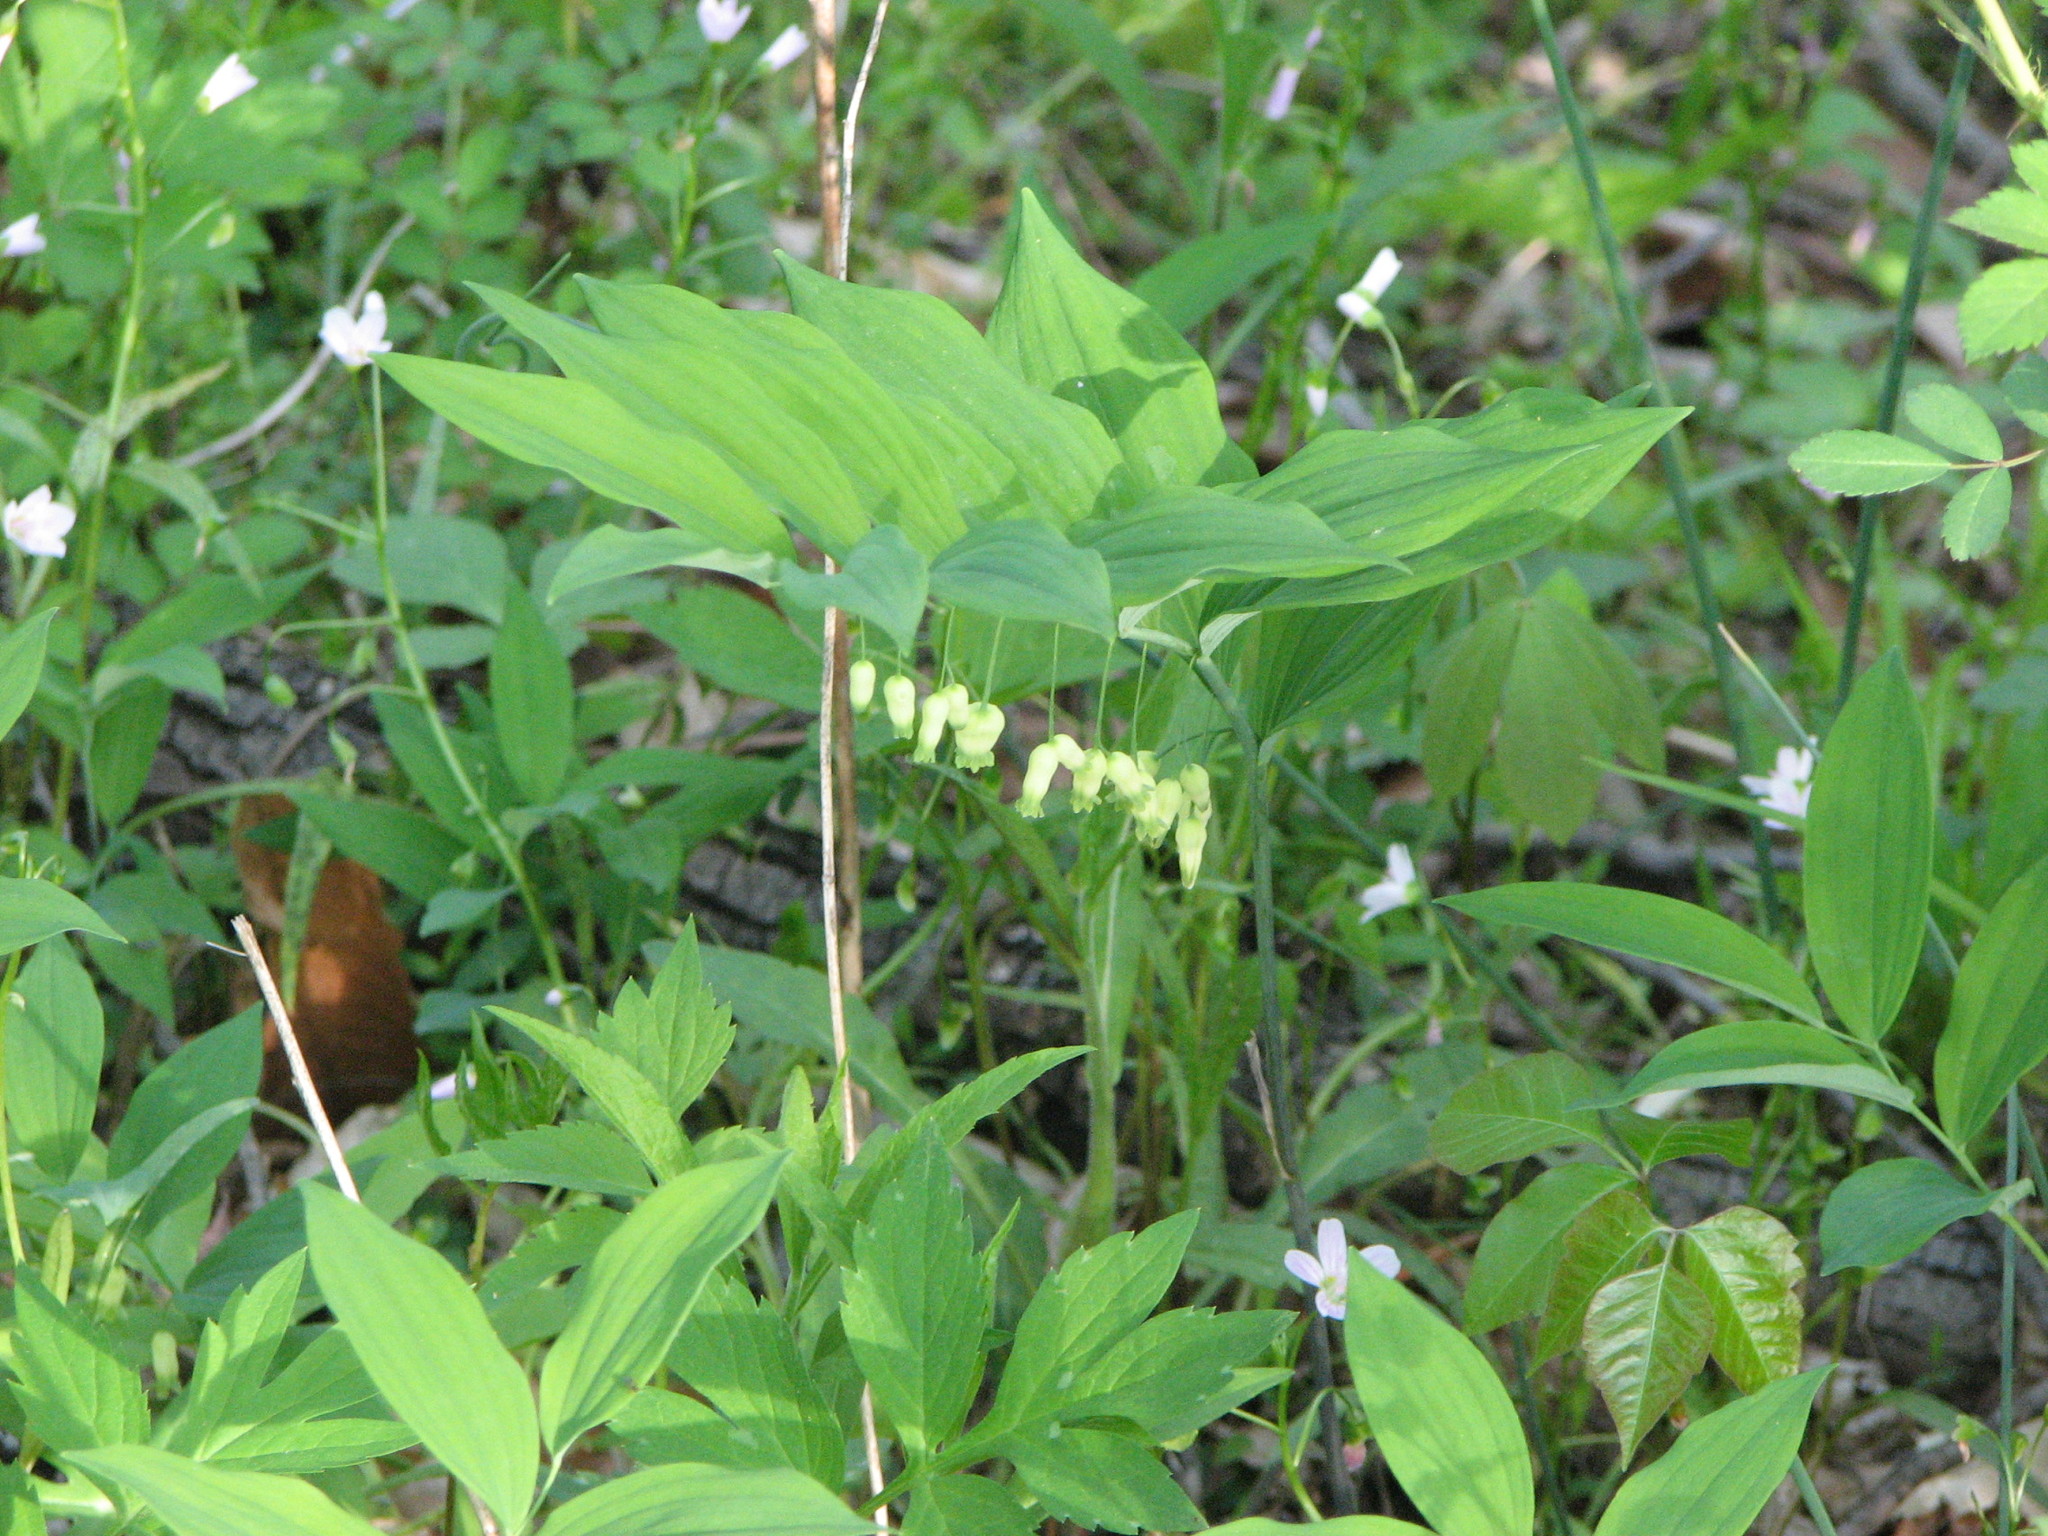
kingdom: Plantae
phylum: Tracheophyta
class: Liliopsida
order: Asparagales
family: Asparagaceae
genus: Polygonatum
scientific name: Polygonatum biflorum
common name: American solomon's-seal
